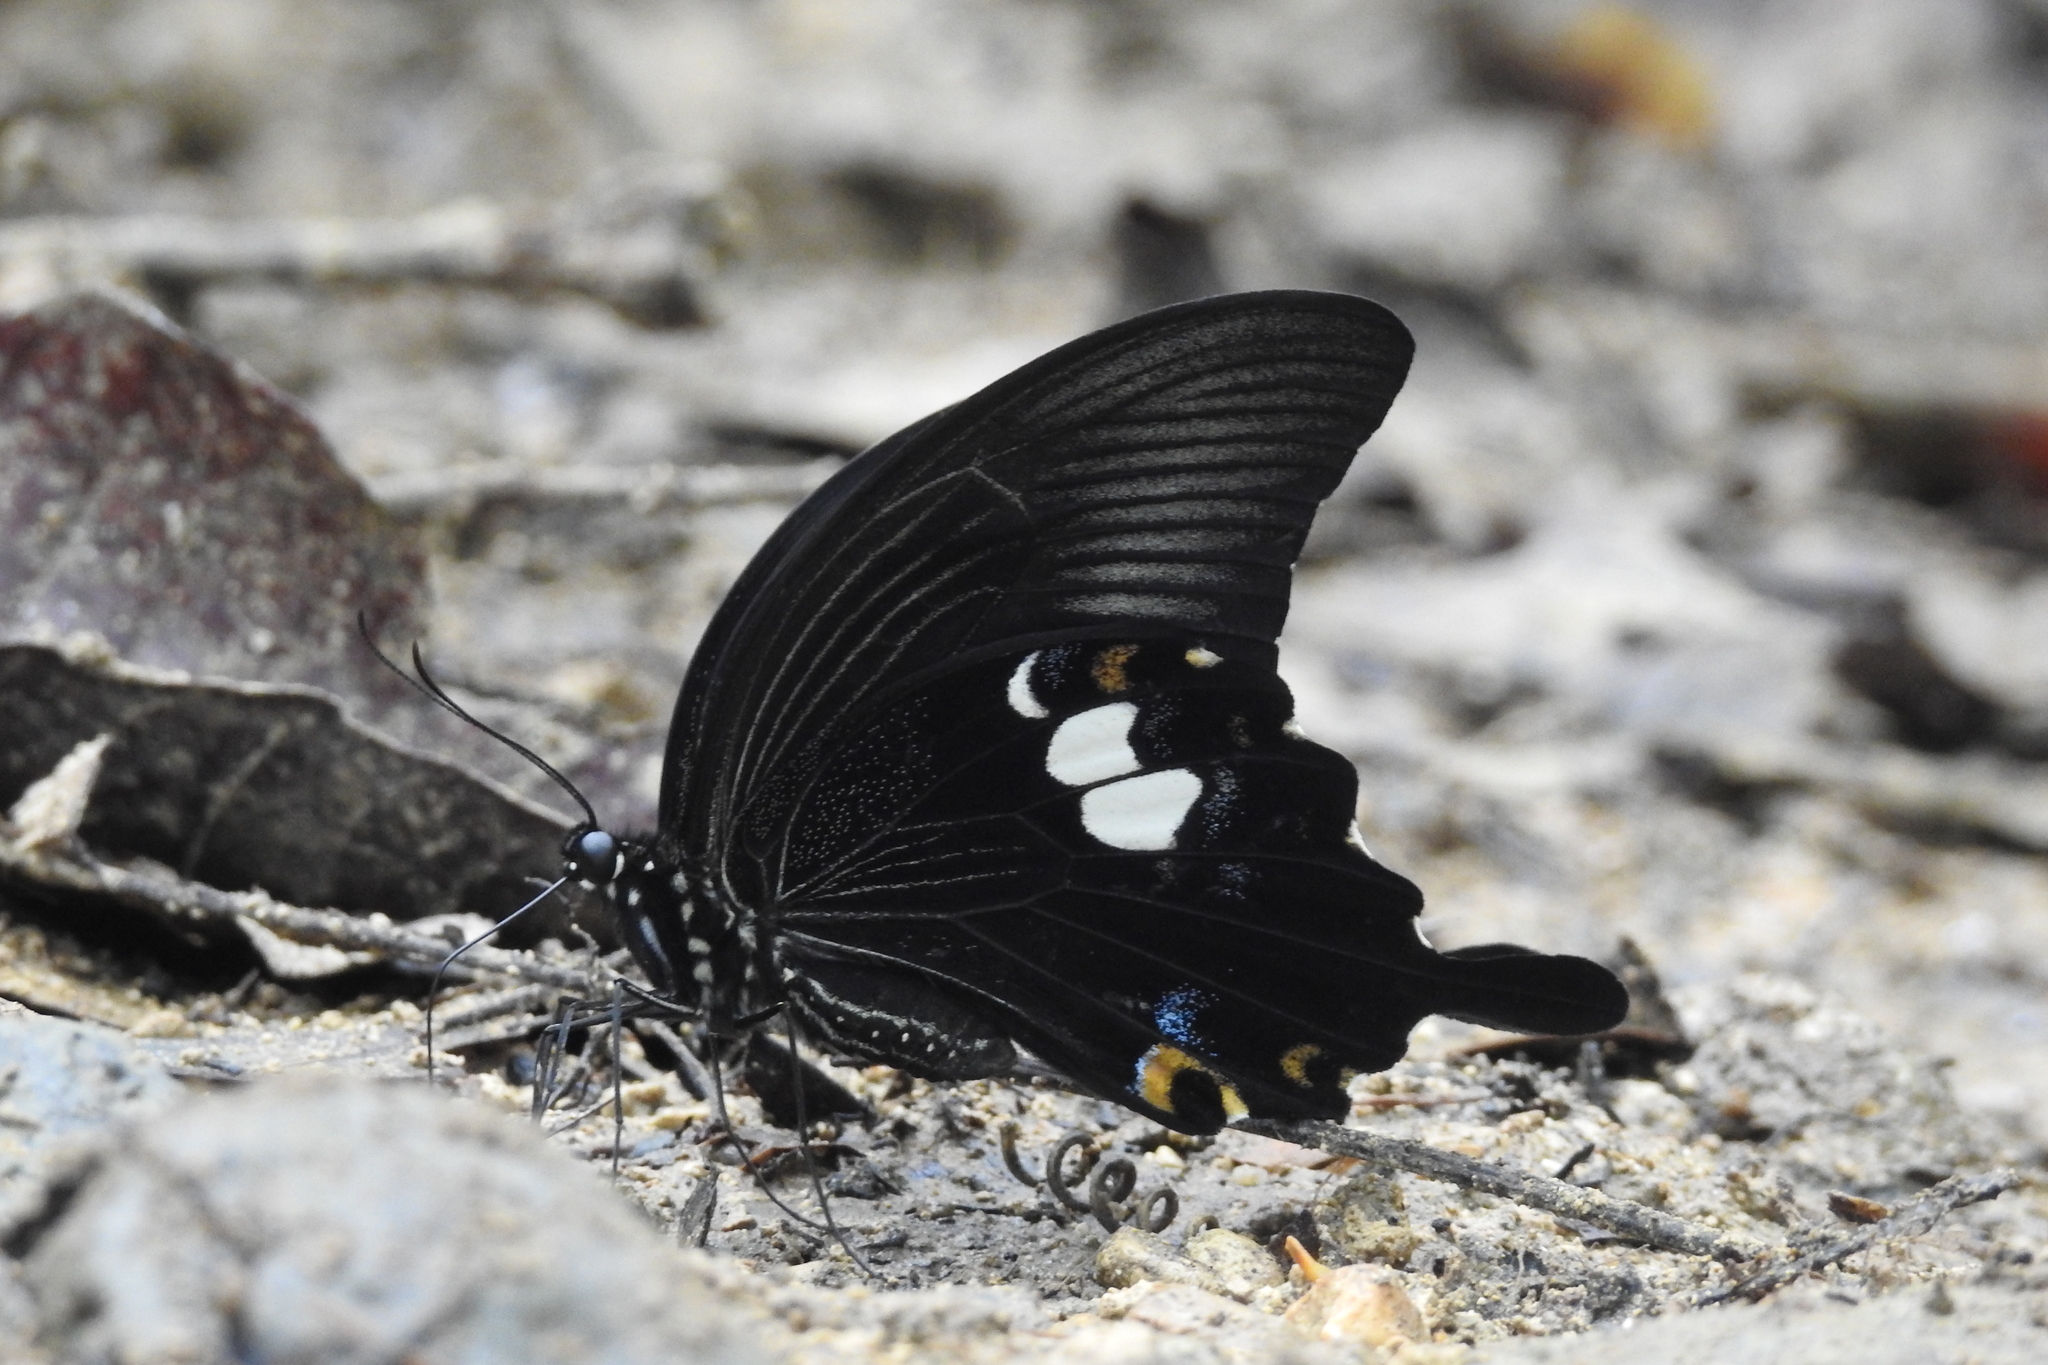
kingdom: Animalia
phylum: Arthropoda
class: Insecta
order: Lepidoptera
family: Papilionidae
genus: Papilio
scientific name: Papilio sataspes
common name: Sulawesi red helen
